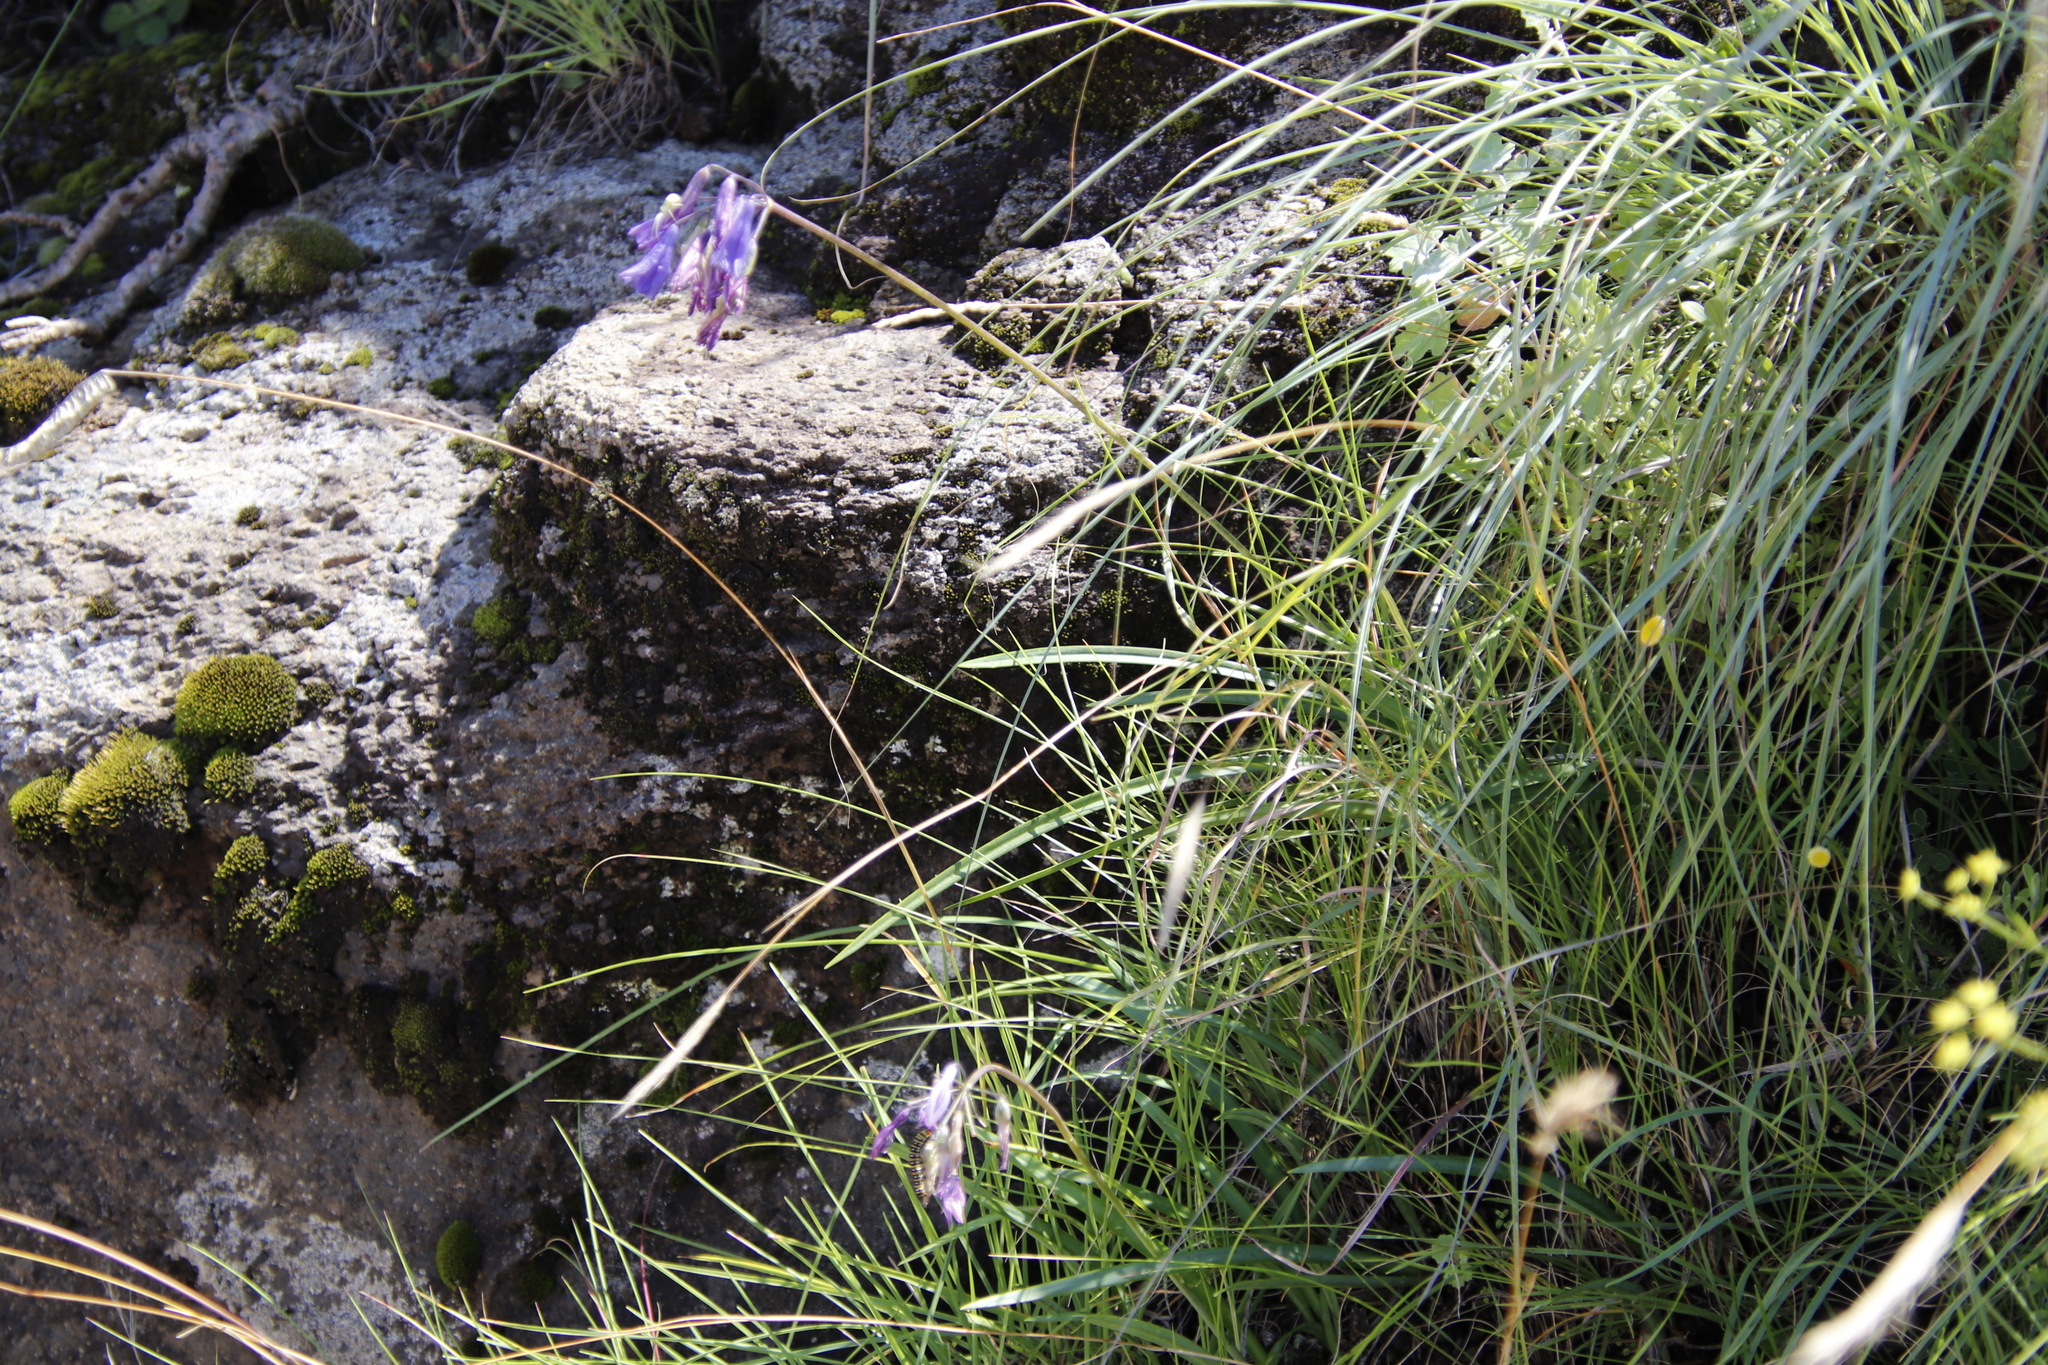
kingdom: Plantae
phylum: Tracheophyta
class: Liliopsida
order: Asparagales
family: Amaryllidaceae
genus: Agapanthus
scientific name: Agapanthus campanulatus
